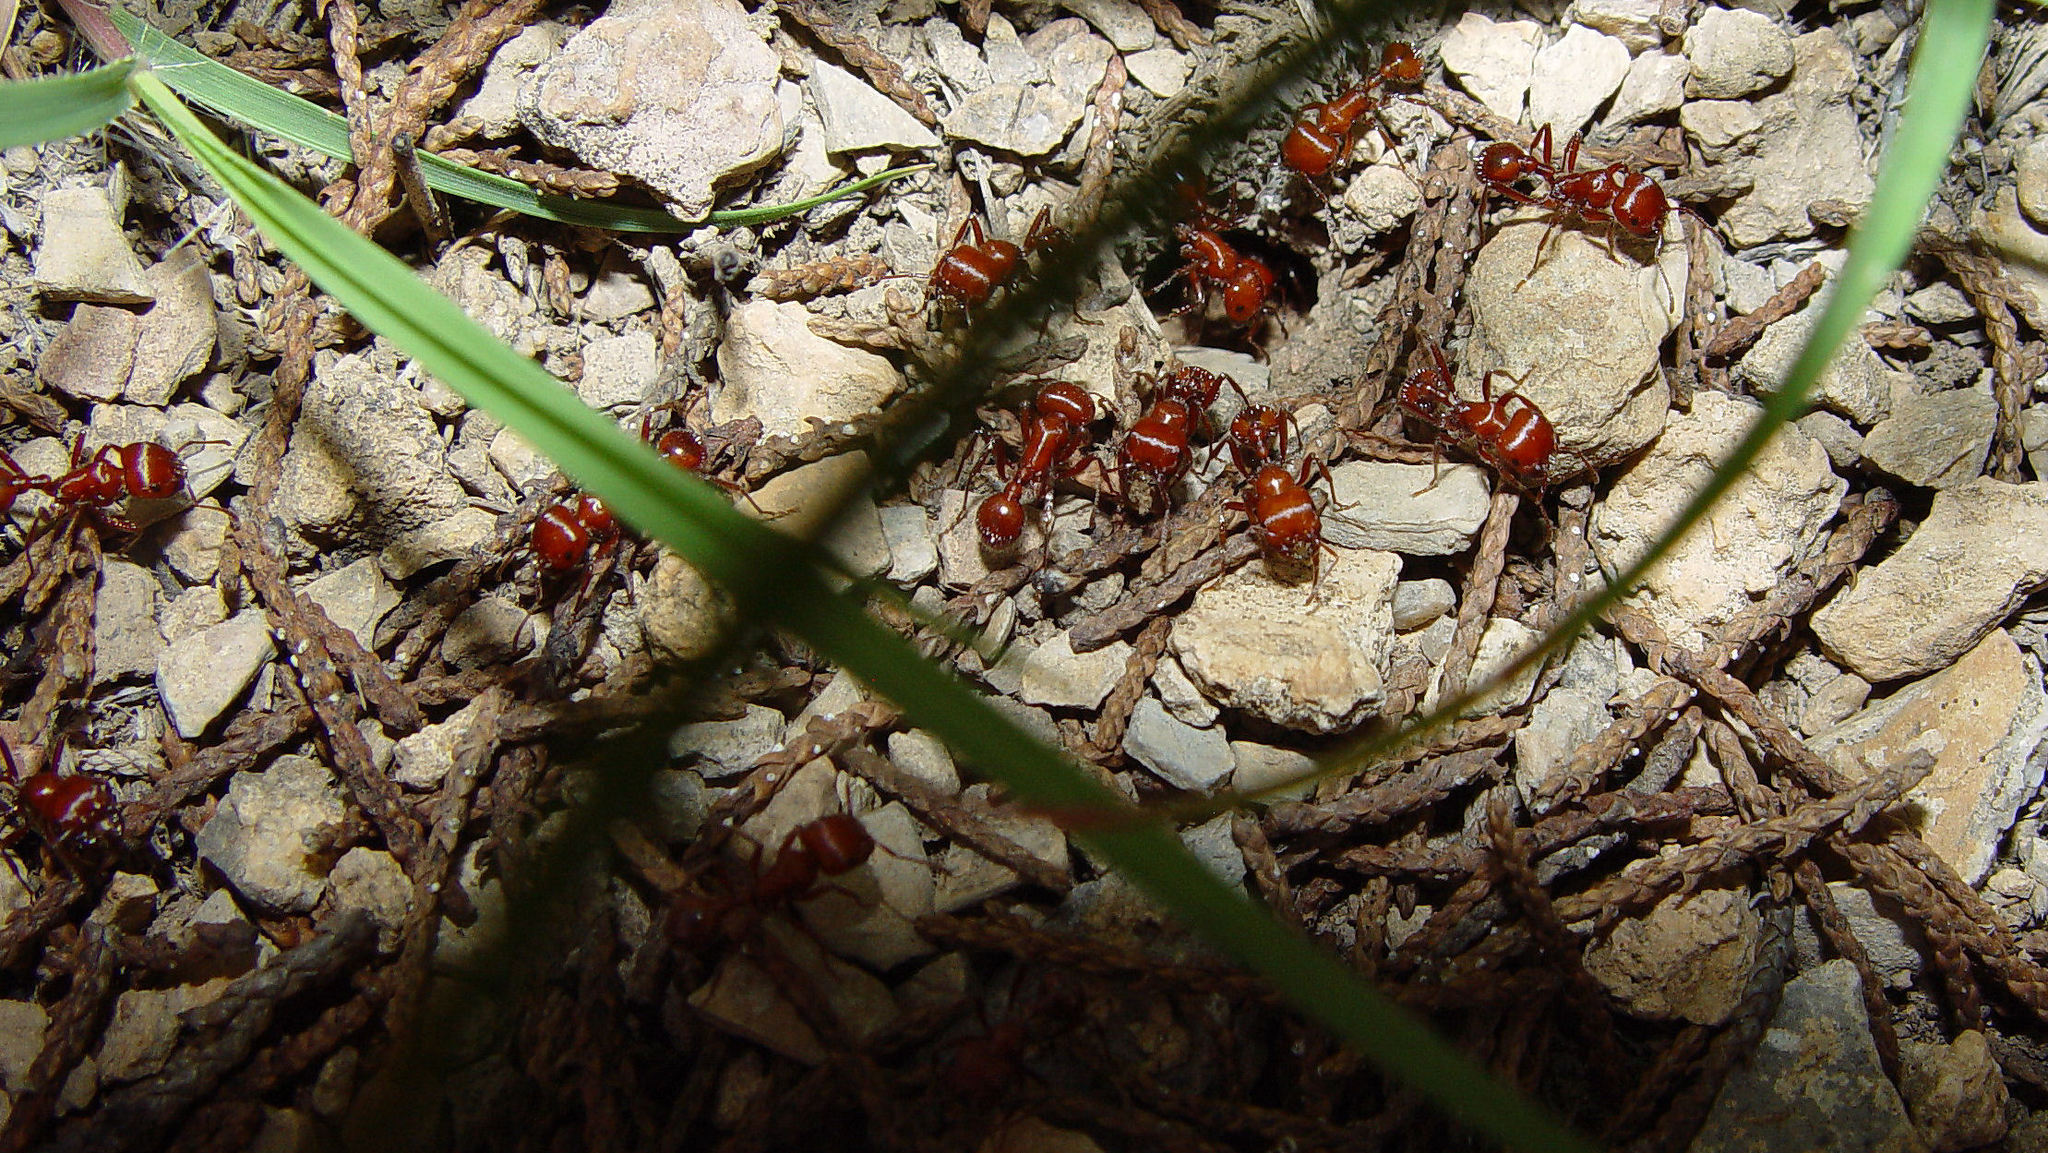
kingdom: Animalia
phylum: Arthropoda
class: Insecta
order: Hymenoptera
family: Formicidae
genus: Pogonomyrmex
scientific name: Pogonomyrmex apache
